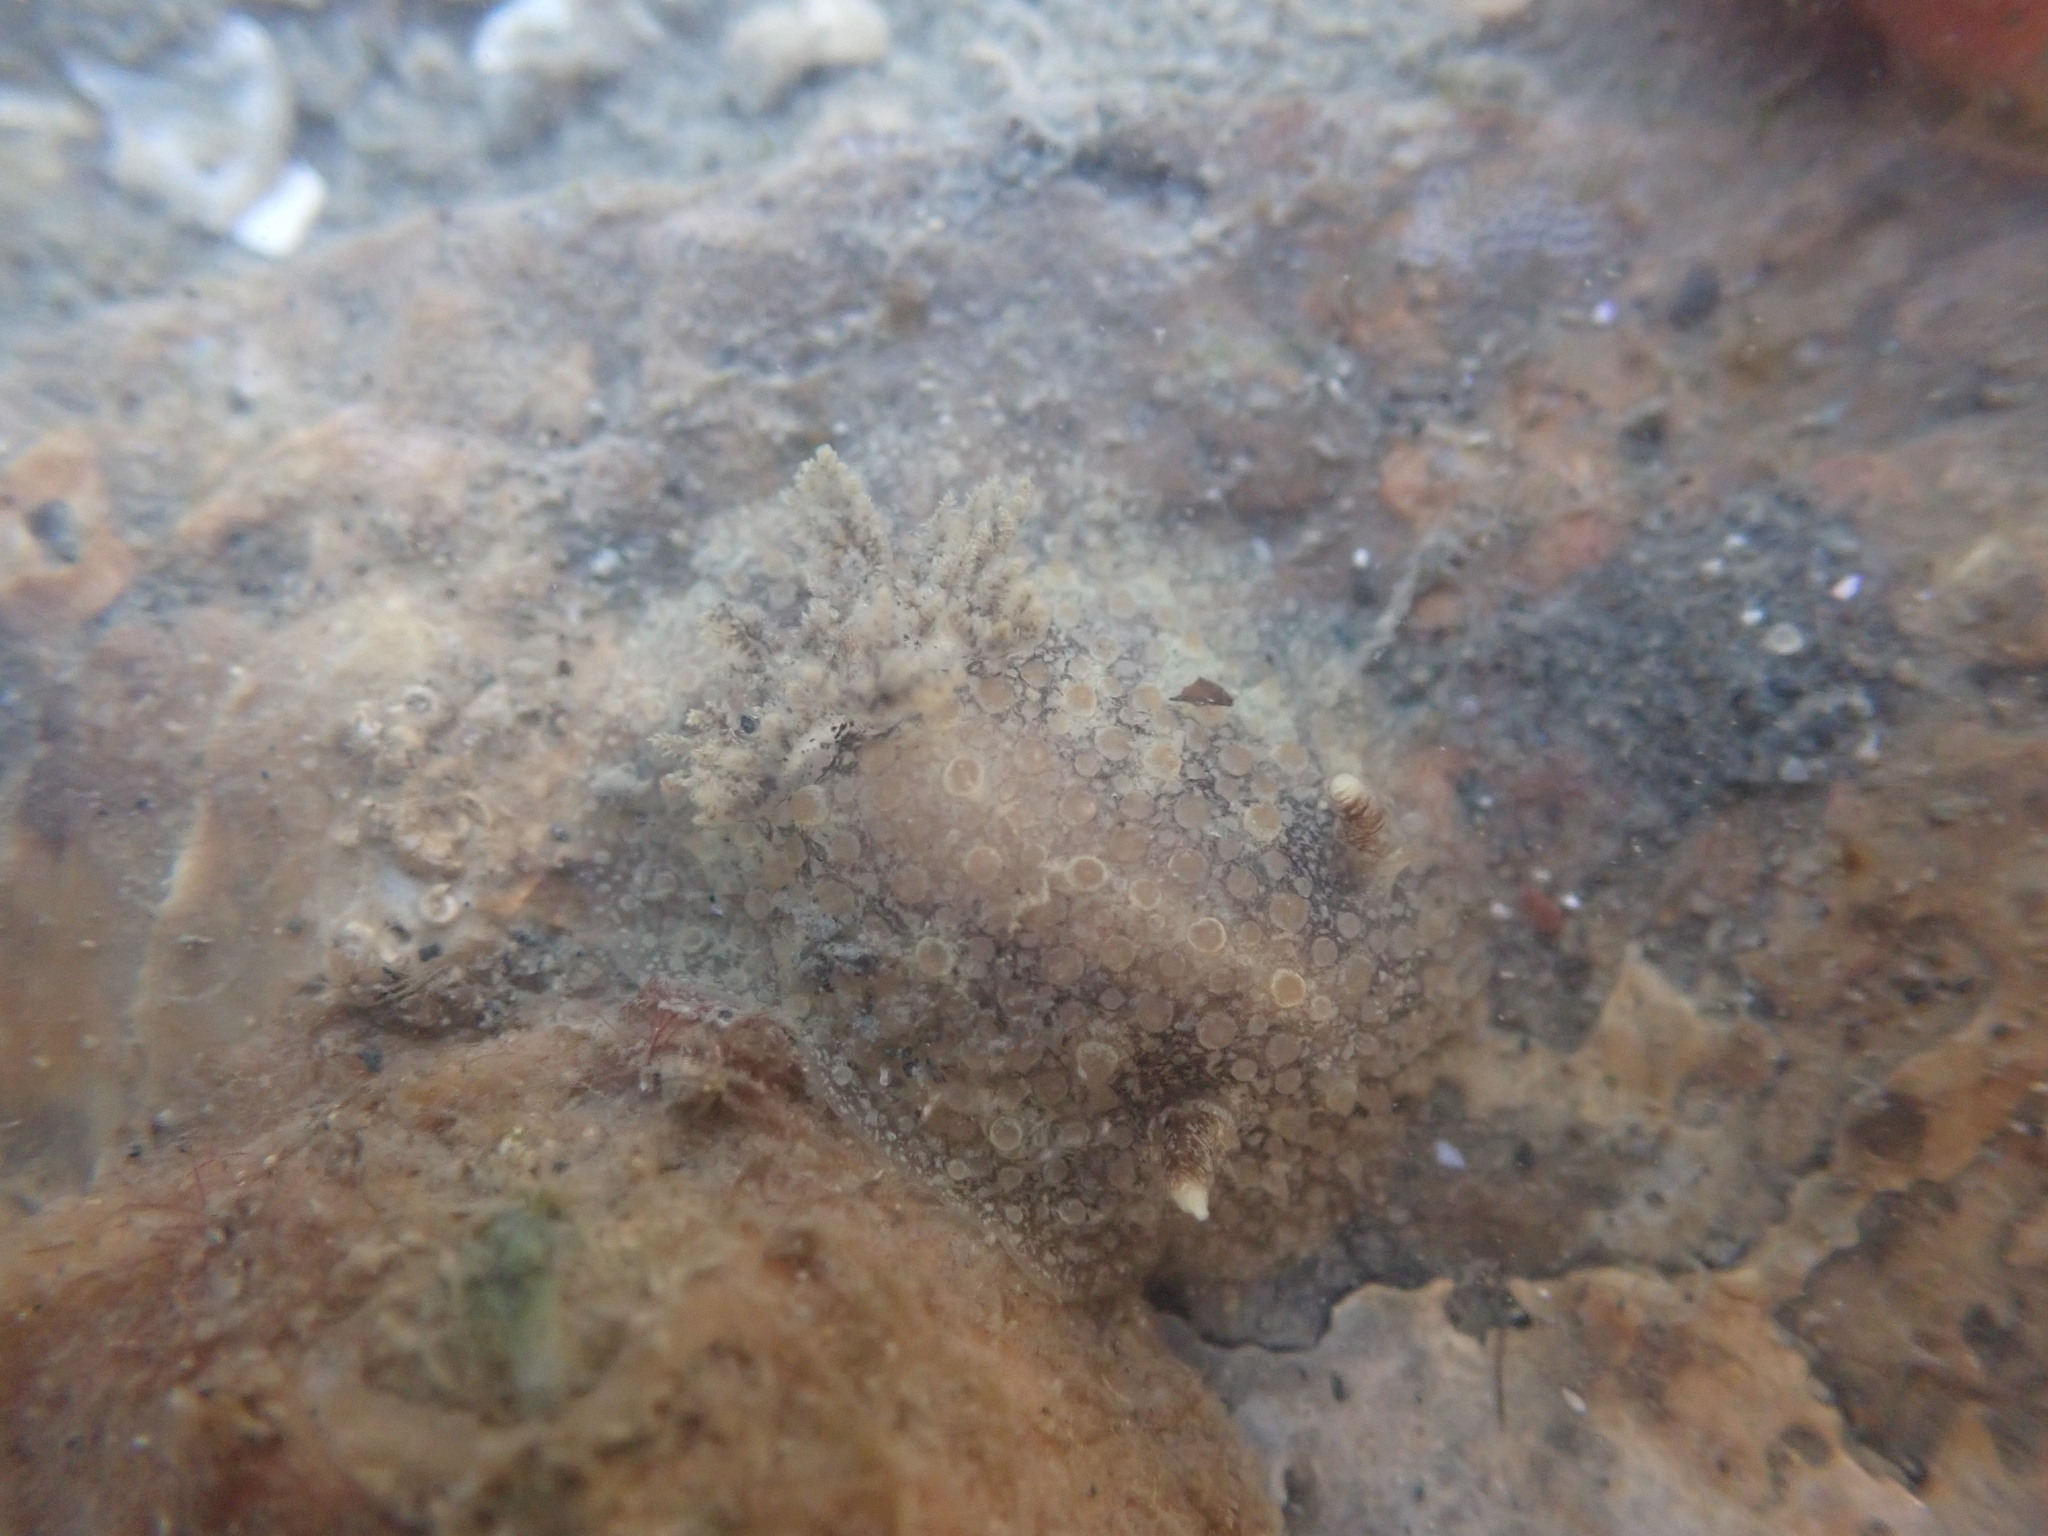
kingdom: Animalia
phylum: Mollusca
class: Gastropoda
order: Nudibranchia
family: Discodorididae
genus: Carminodoris
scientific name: Carminodoris nodulosa
